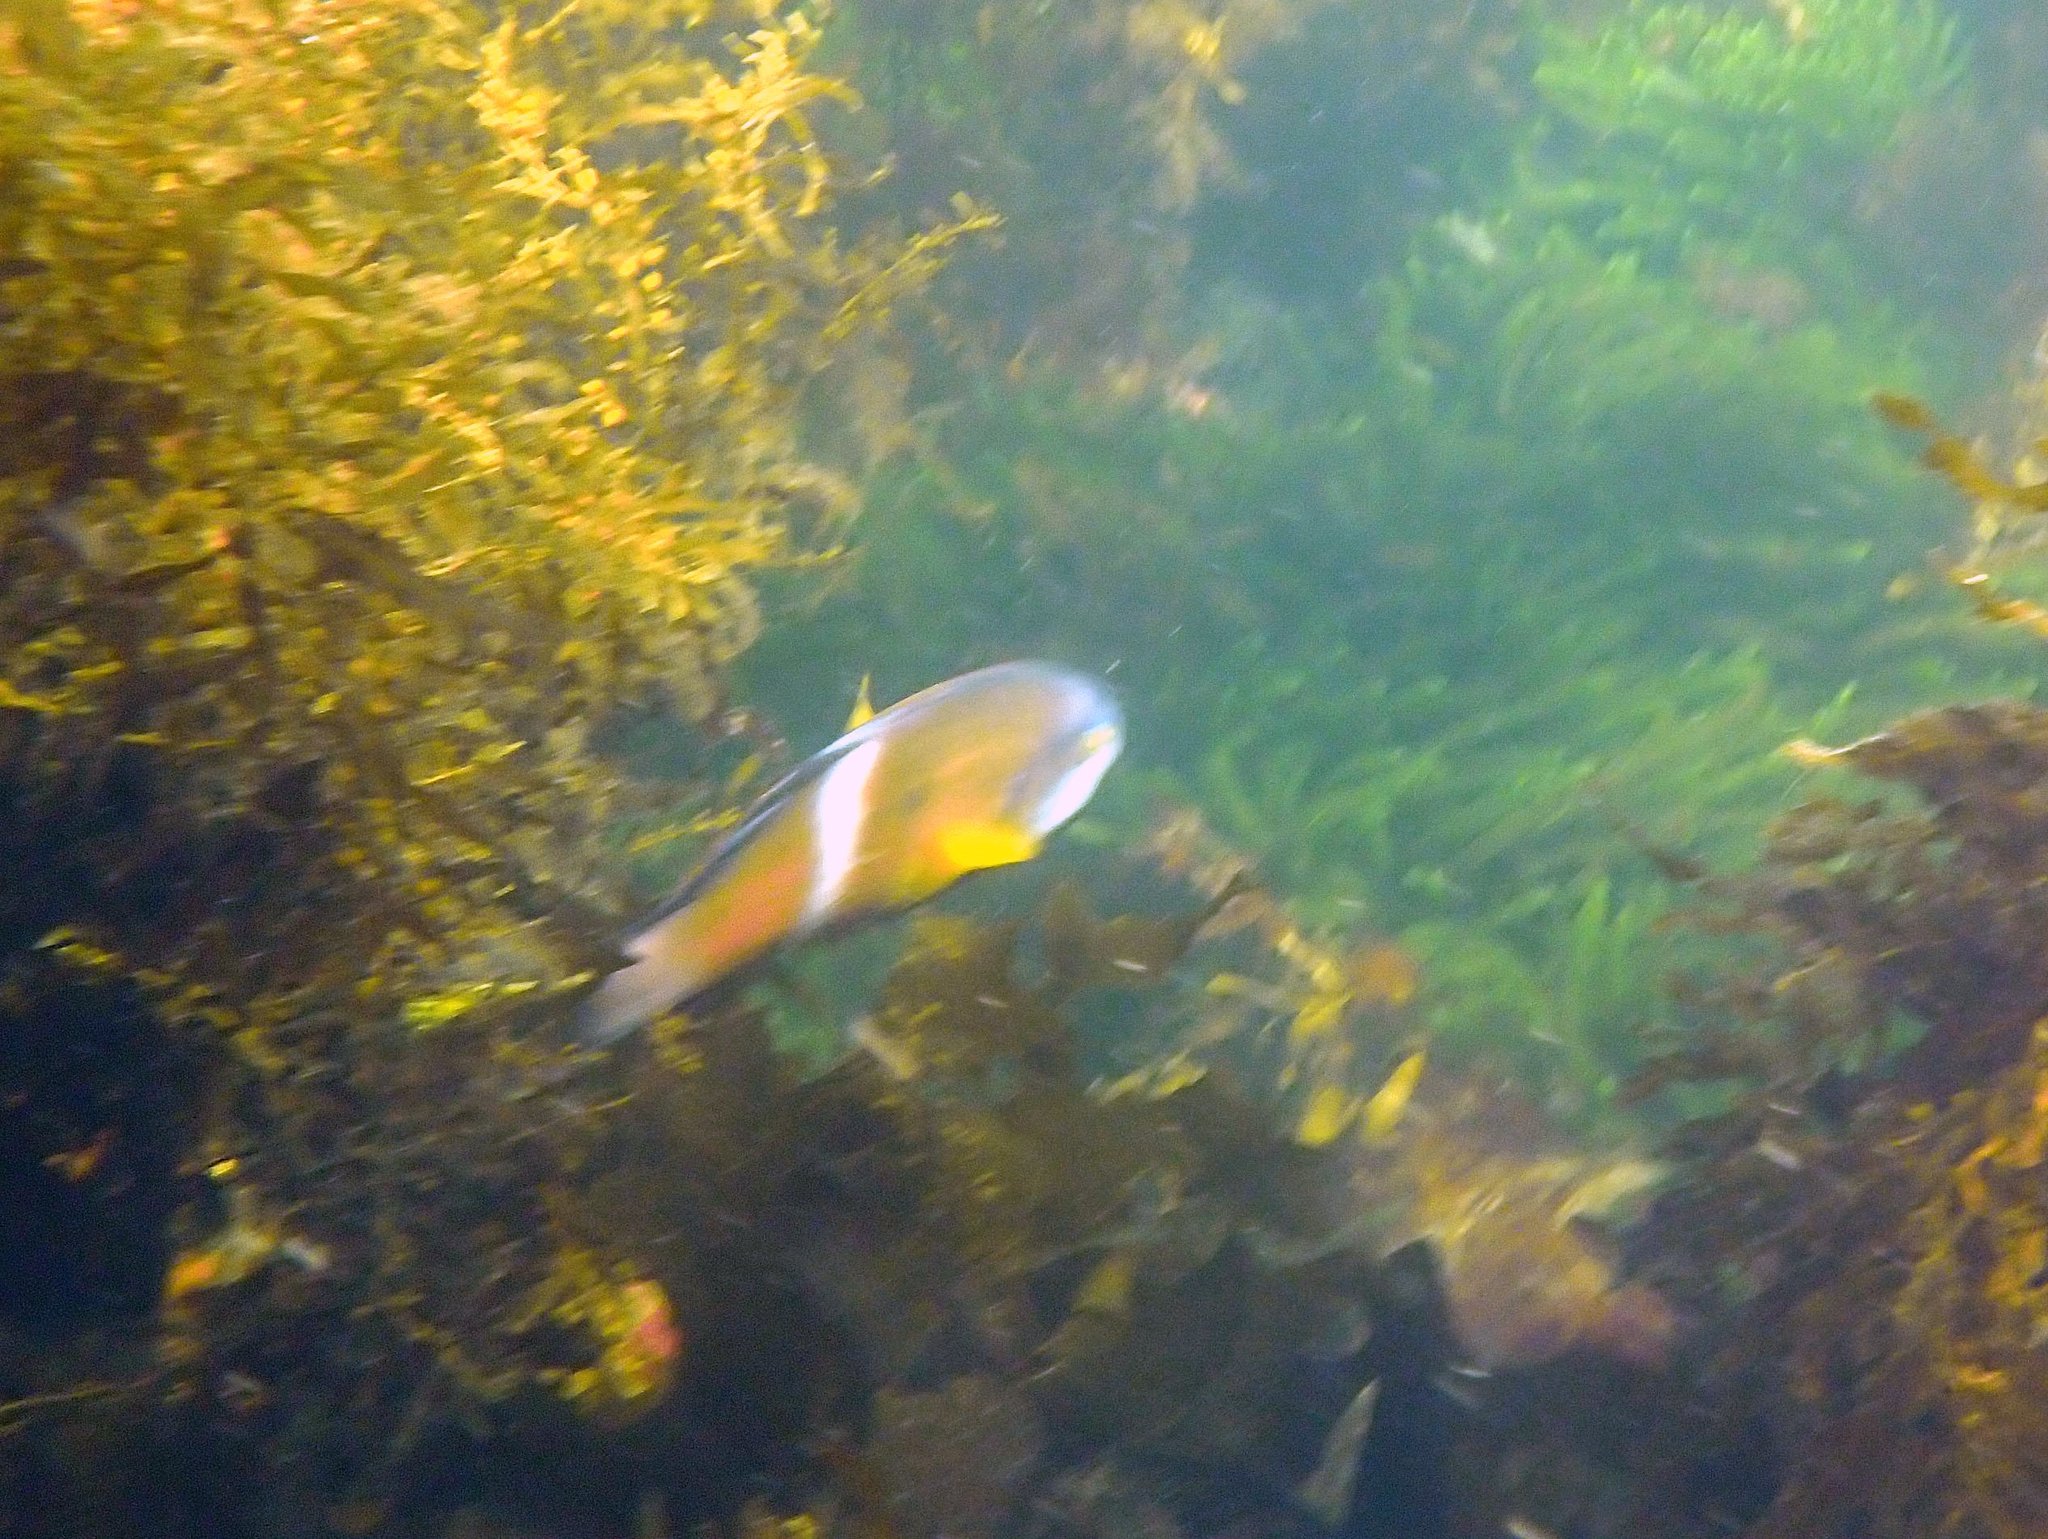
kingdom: Animalia
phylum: Chordata
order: Perciformes
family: Labridae
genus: Notolabrus
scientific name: Notolabrus tetricus
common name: Blue-throated parrotfish
